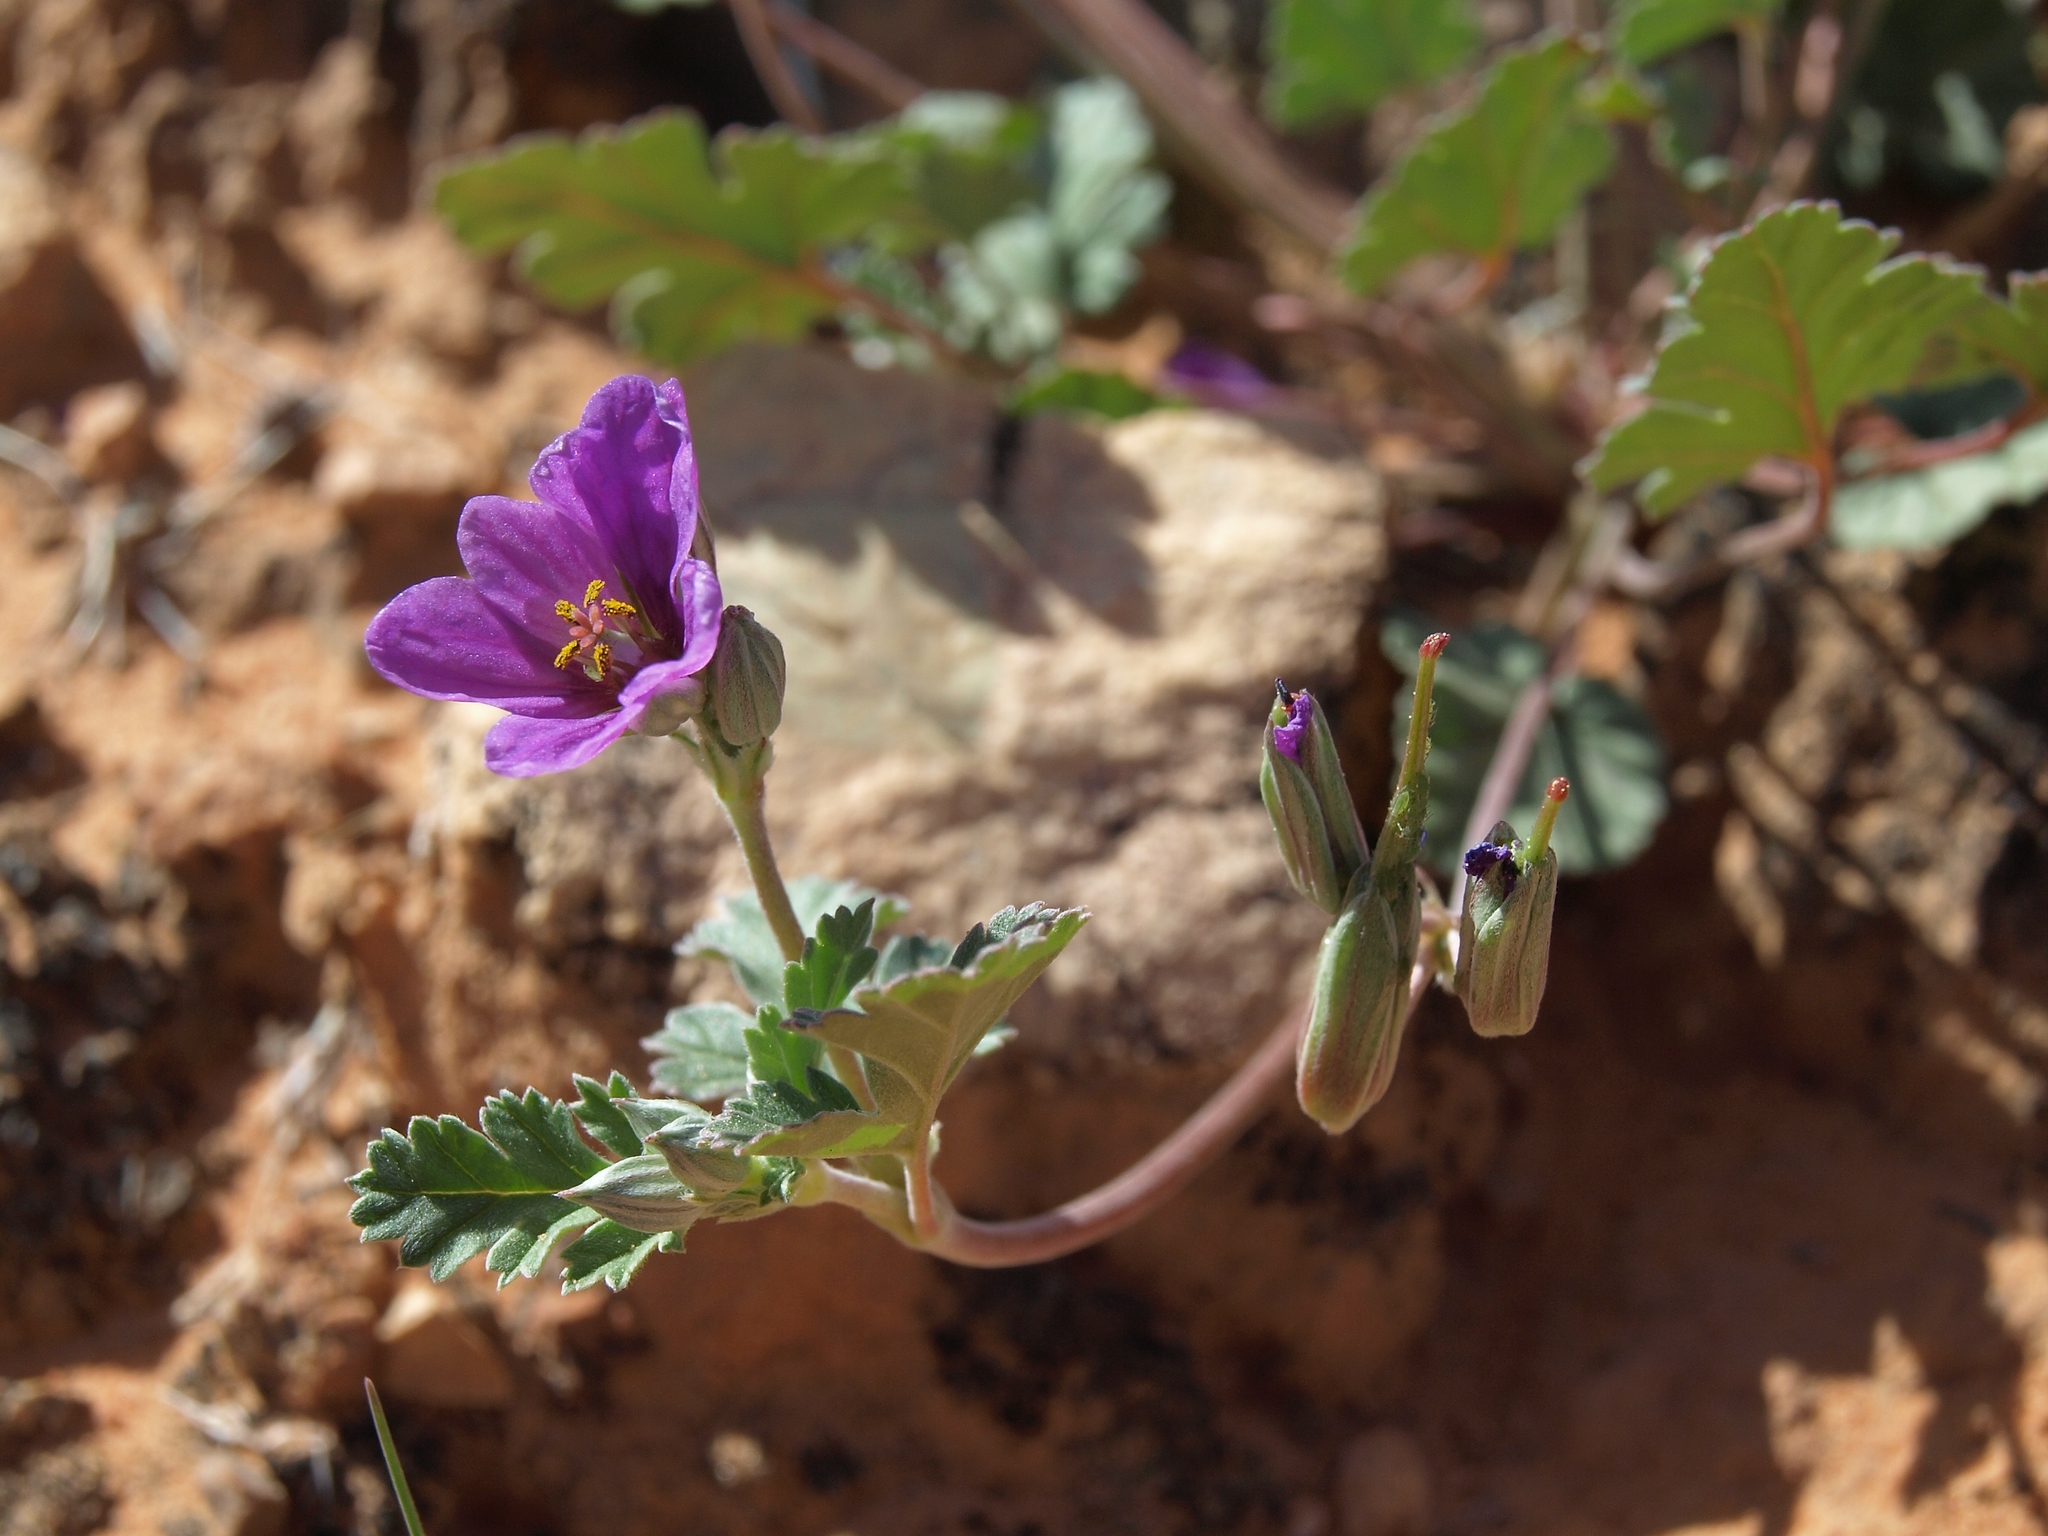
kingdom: Plantae
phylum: Tracheophyta
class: Magnoliopsida
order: Geraniales
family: Geraniaceae
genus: Erodium
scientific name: Erodium texanum
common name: Texas stork's-bill
